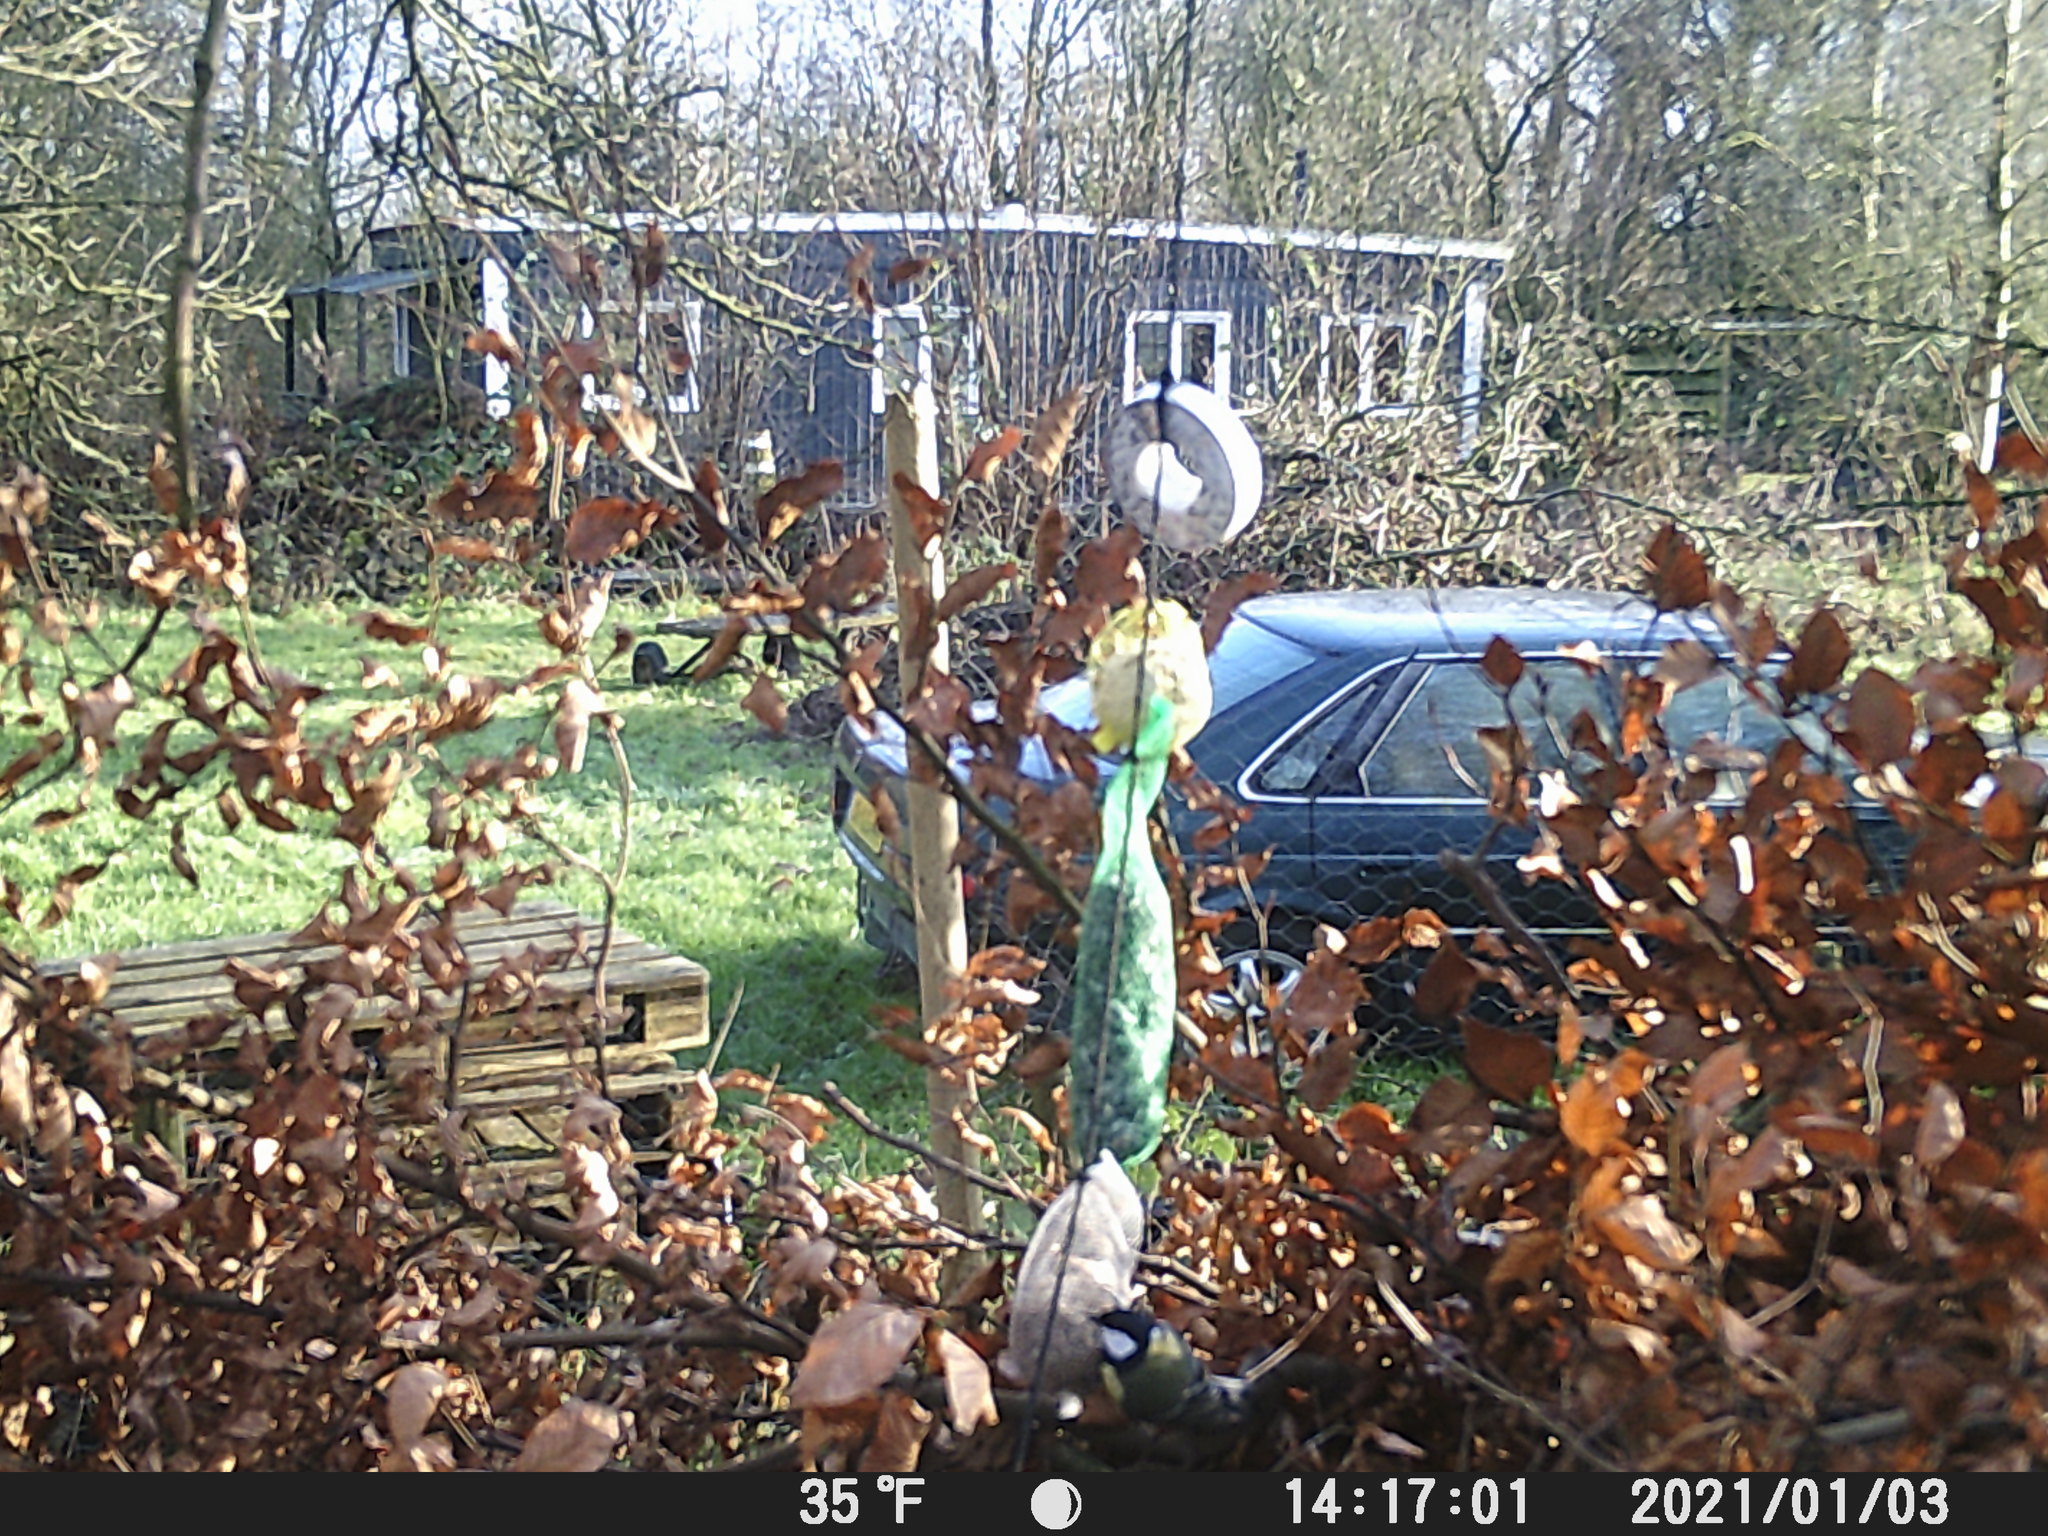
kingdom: Animalia
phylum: Chordata
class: Aves
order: Passeriformes
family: Paridae
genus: Parus
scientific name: Parus major
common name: Great tit
